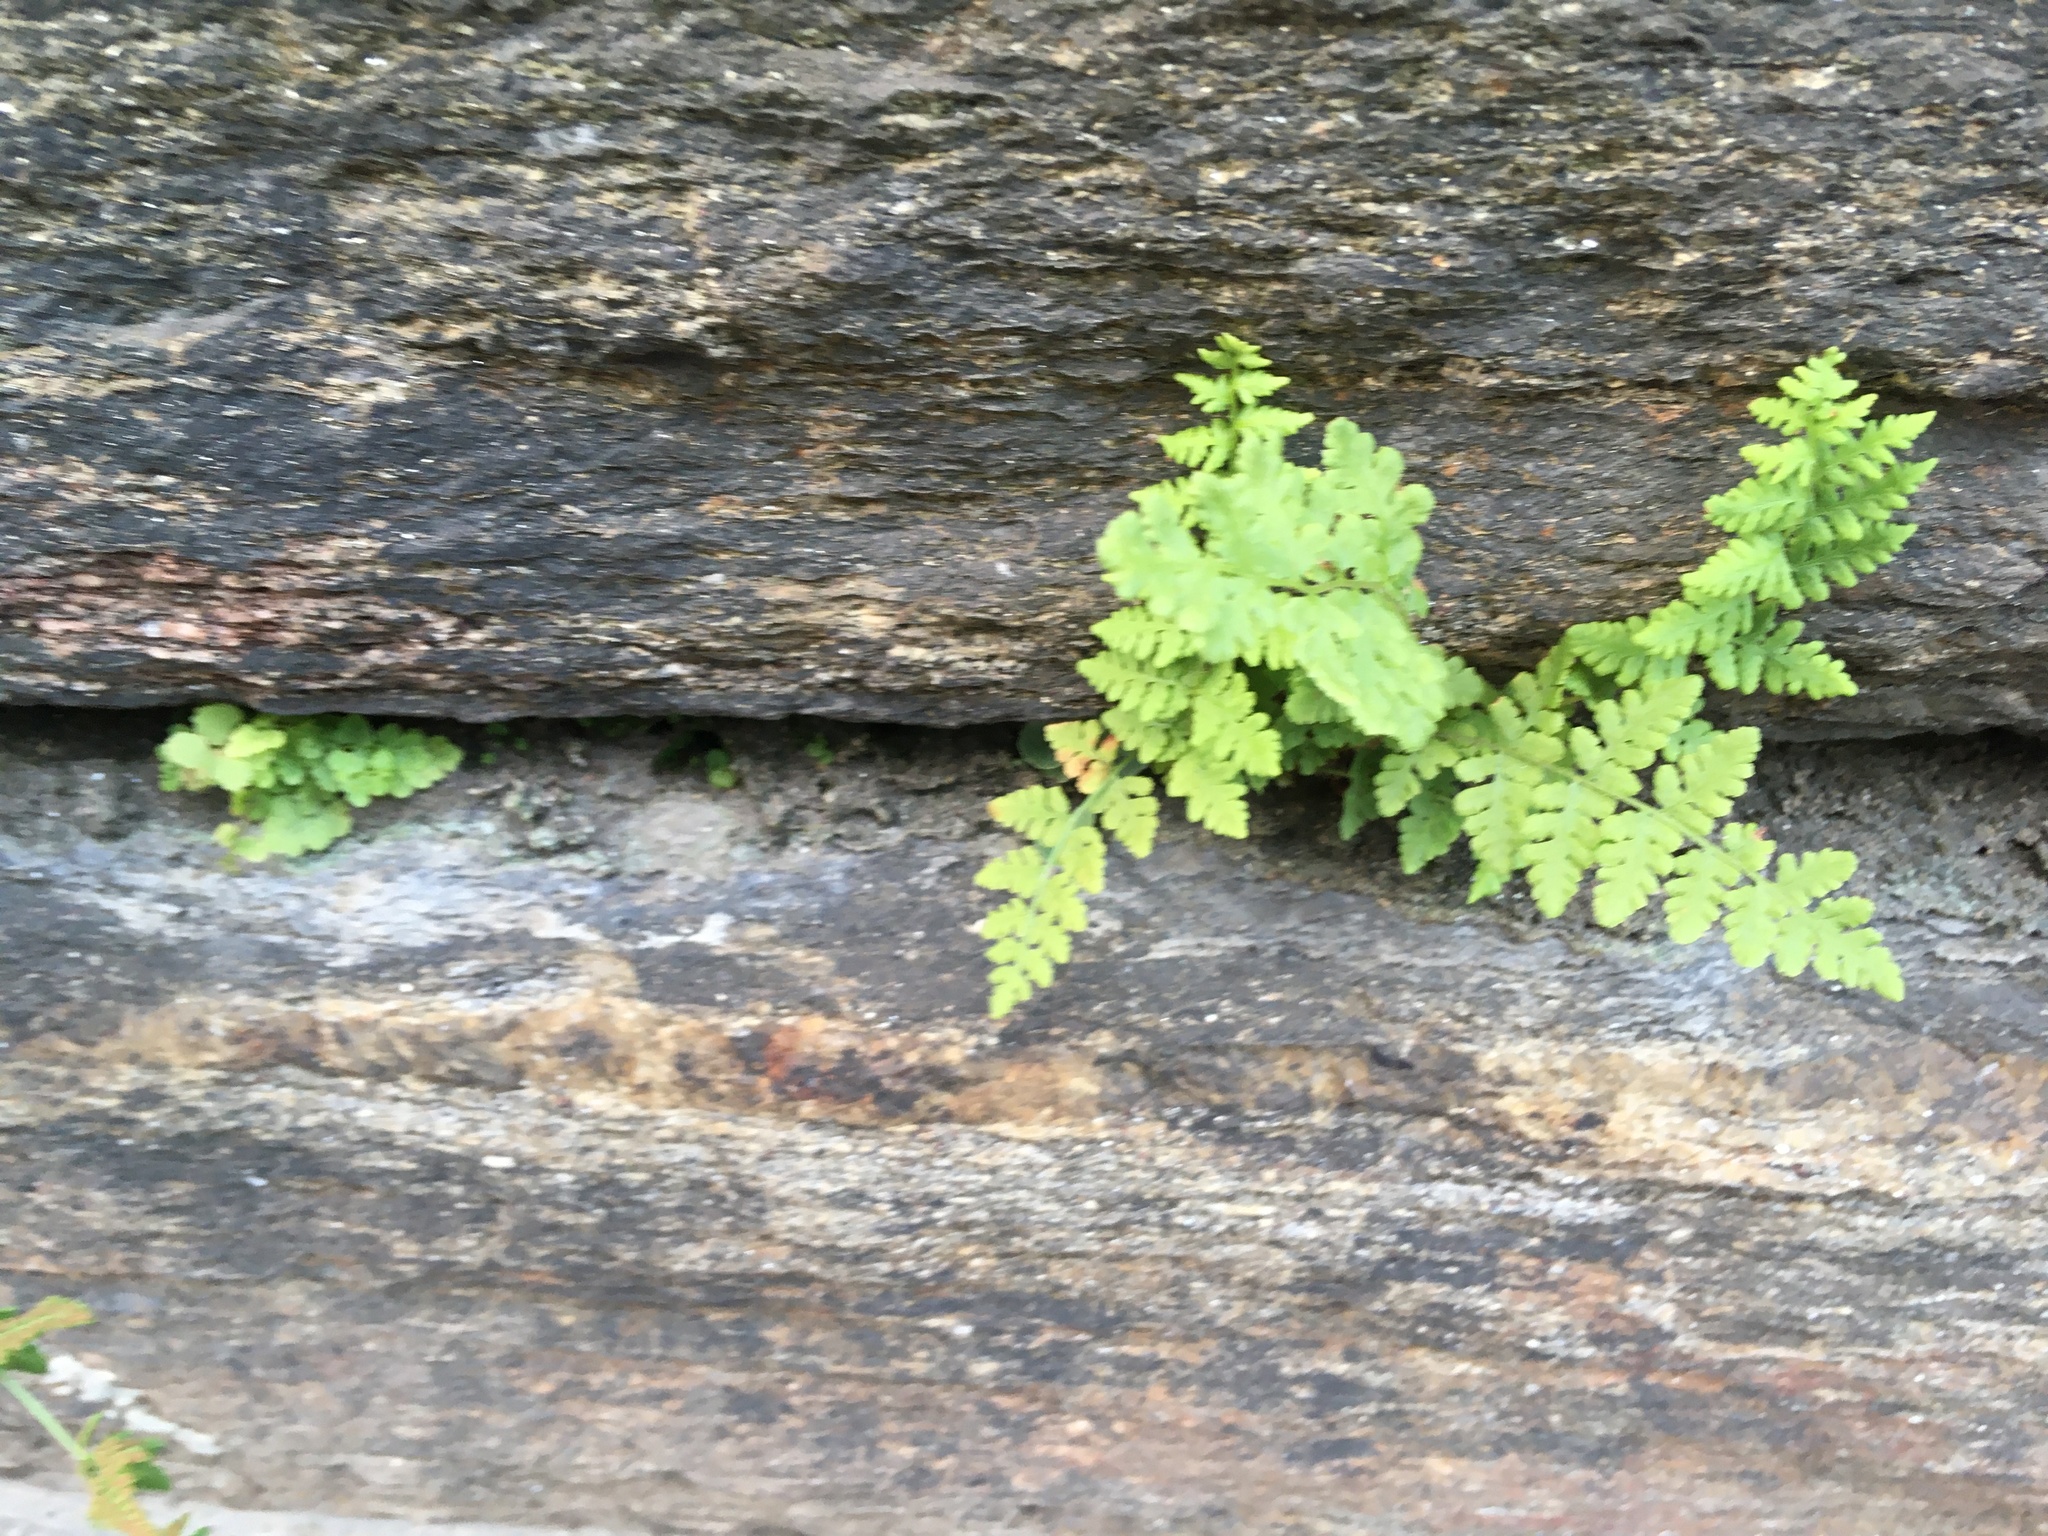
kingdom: Plantae
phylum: Tracheophyta
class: Polypodiopsida
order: Polypodiales
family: Woodsiaceae
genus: Physematium
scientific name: Physematium obtusum
